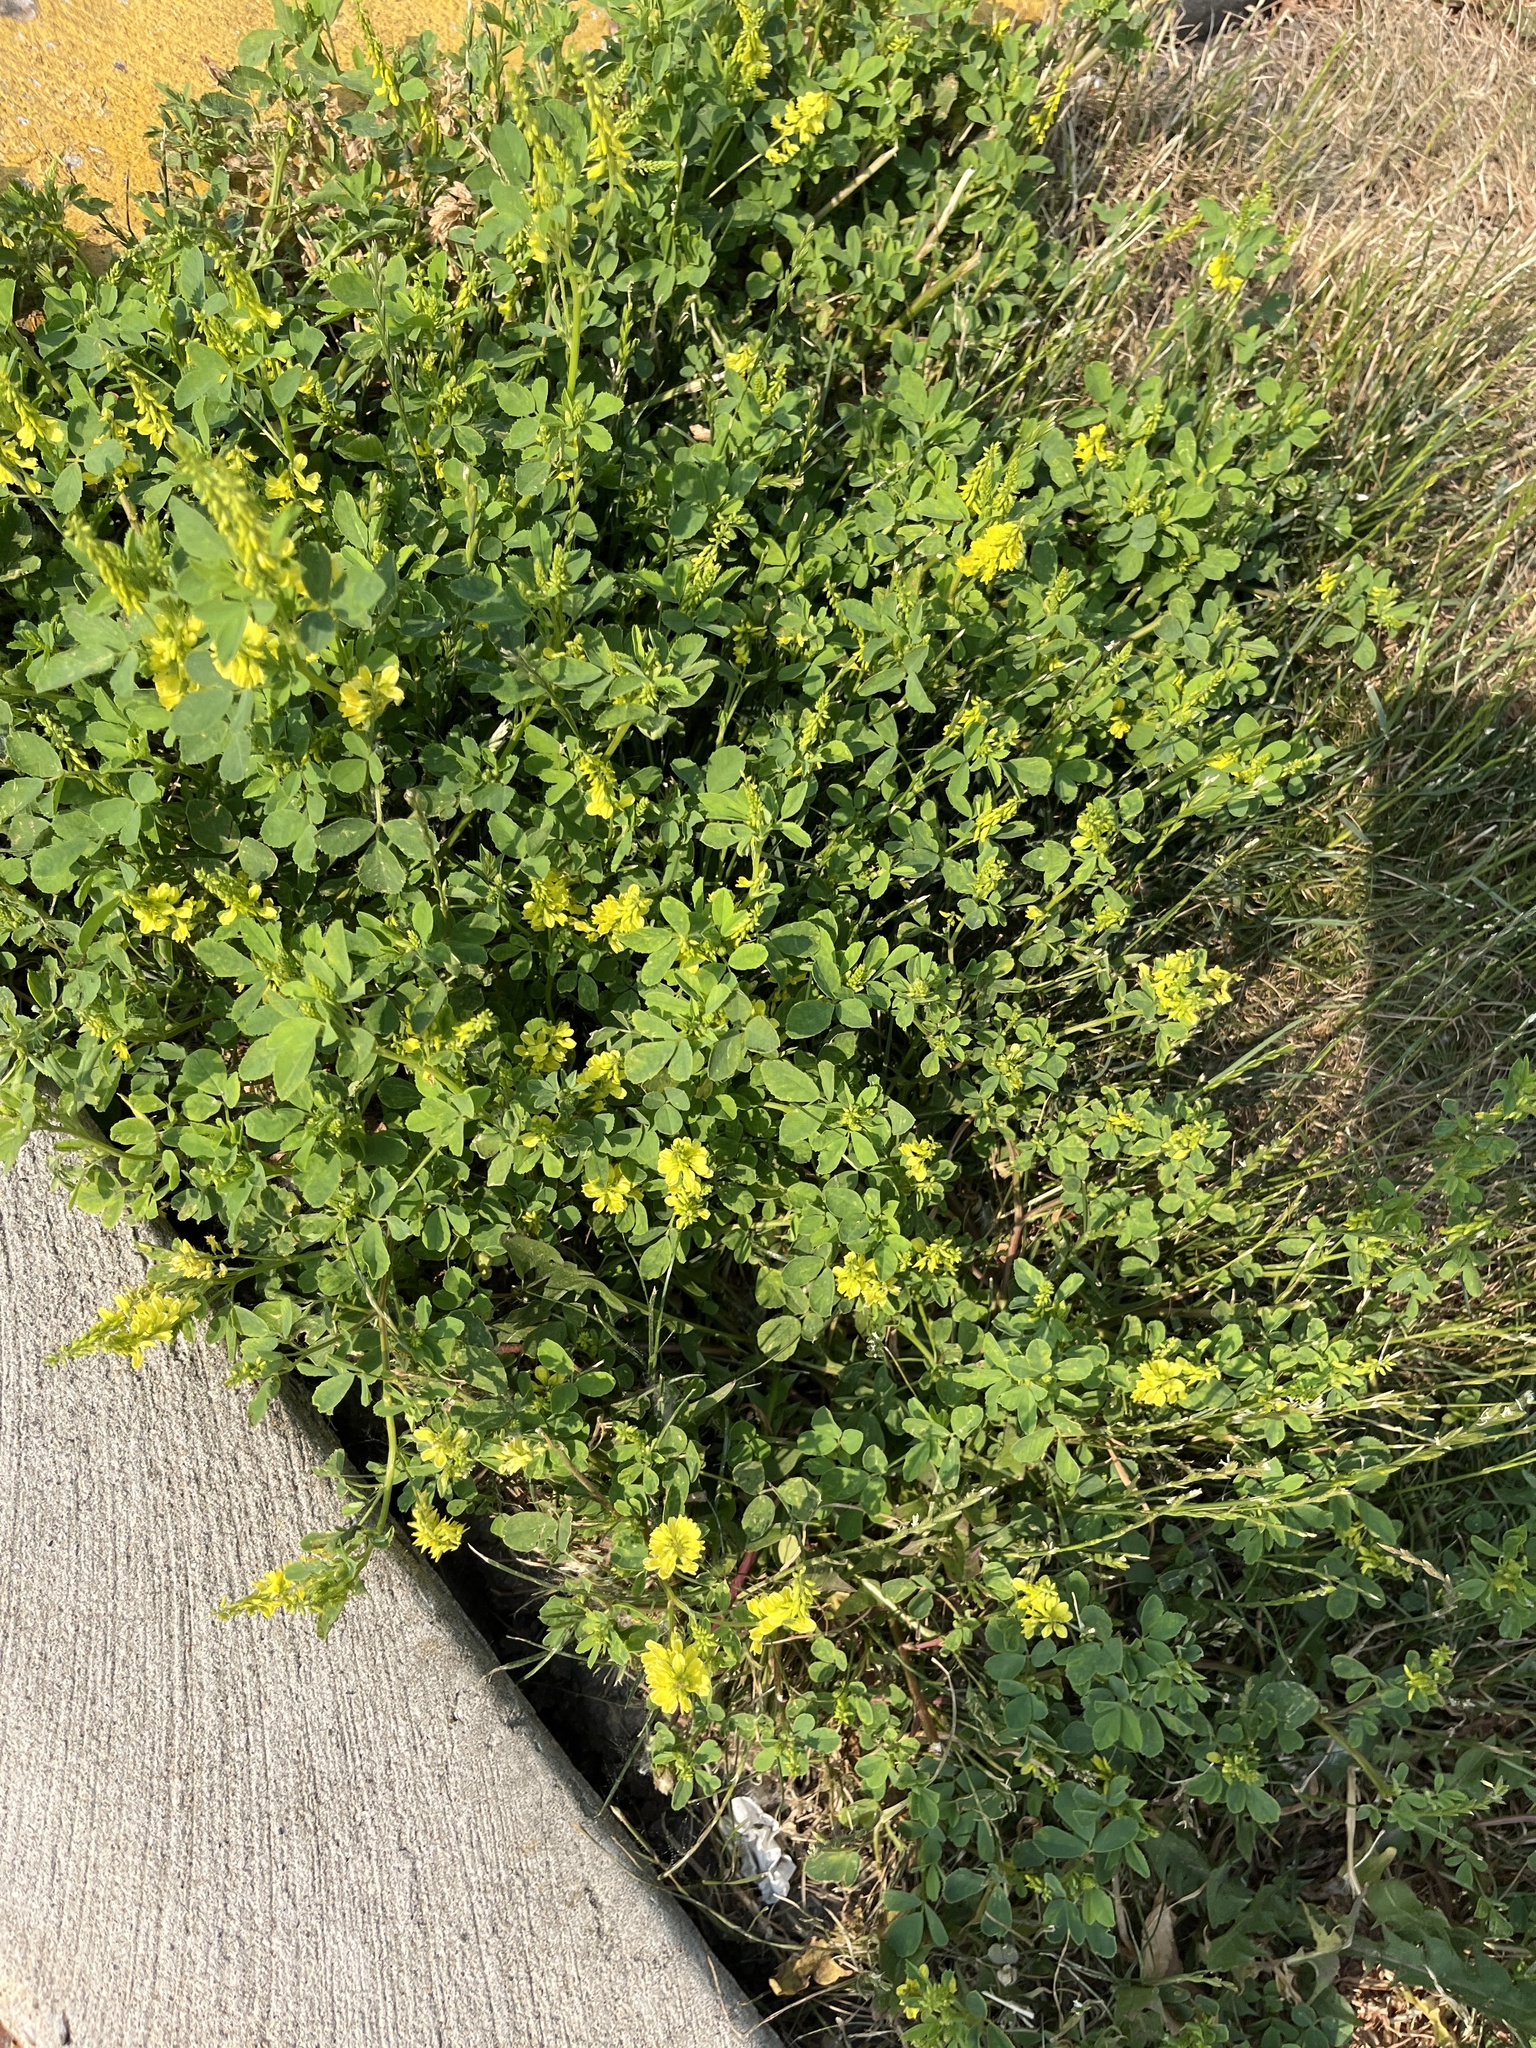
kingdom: Plantae
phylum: Tracheophyta
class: Magnoliopsida
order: Fabales
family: Fabaceae
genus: Melilotus
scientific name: Melilotus officinalis
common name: Sweetclover
